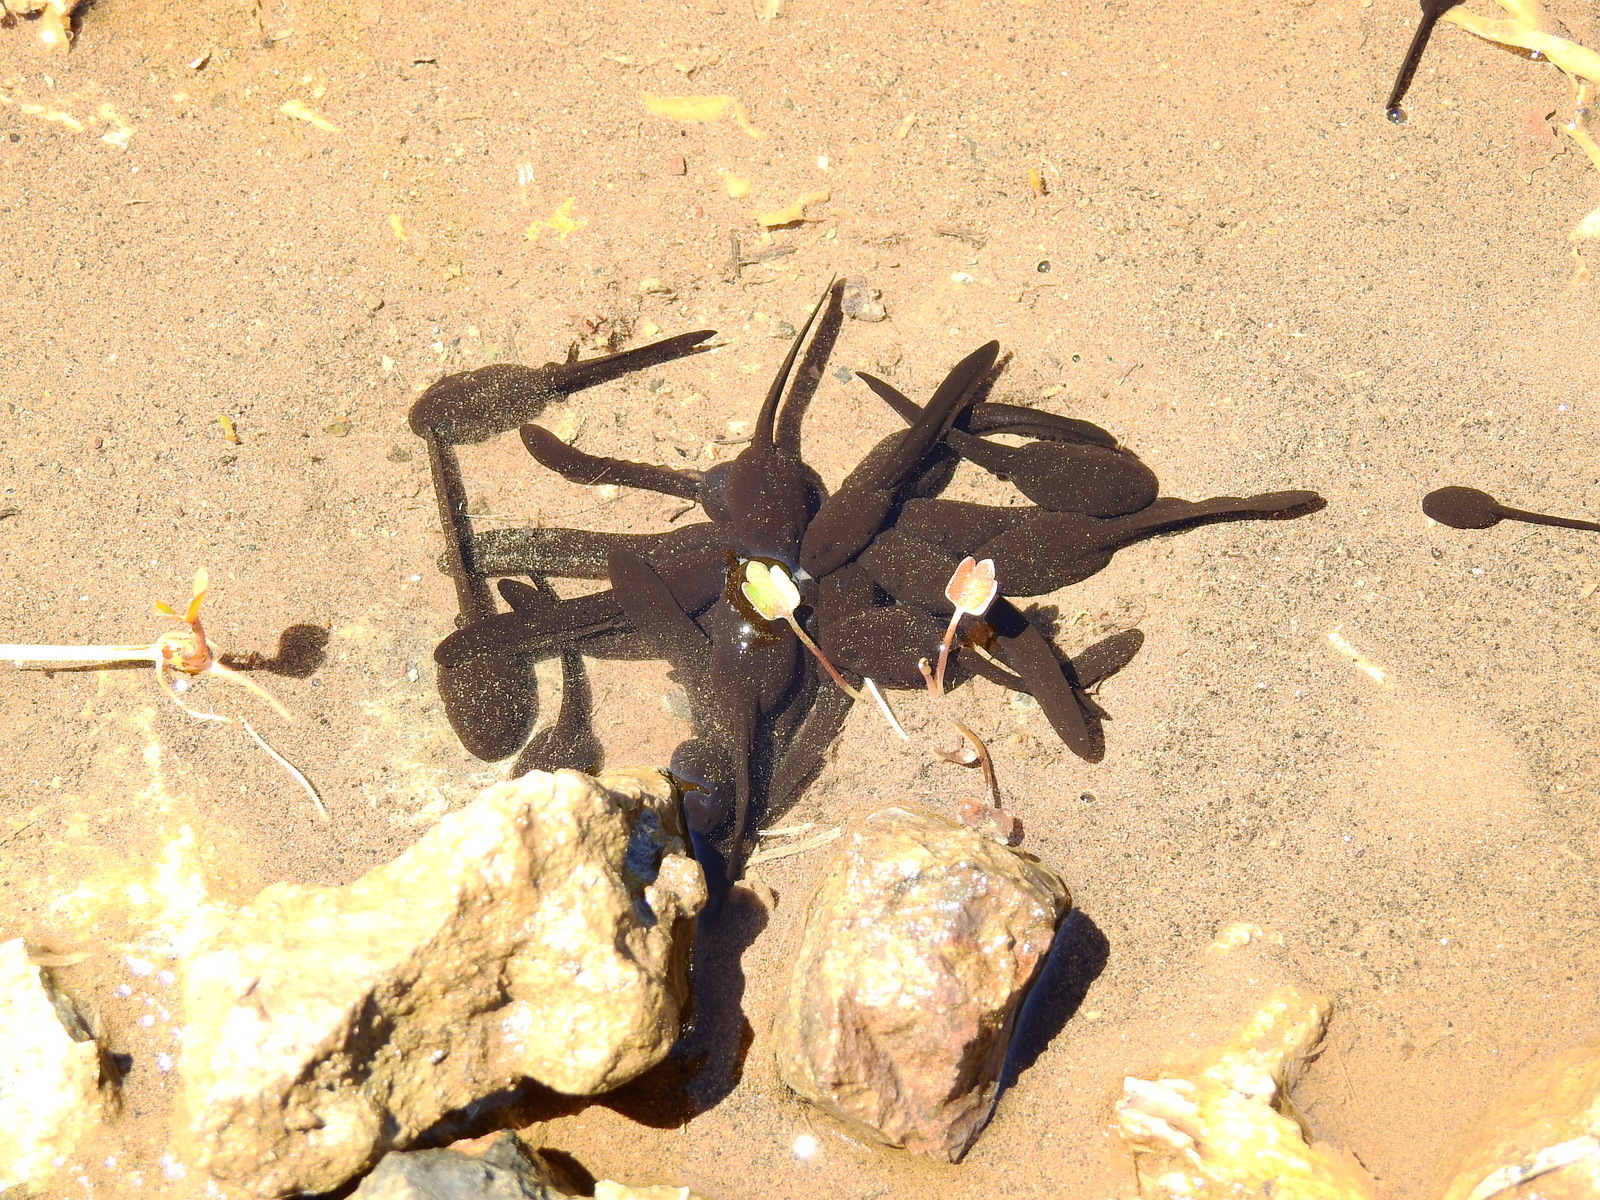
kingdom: Animalia
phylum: Chordata
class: Amphibia
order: Anura
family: Bufonidae
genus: Rhinella
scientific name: Rhinella spinulosa
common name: Warty toad
